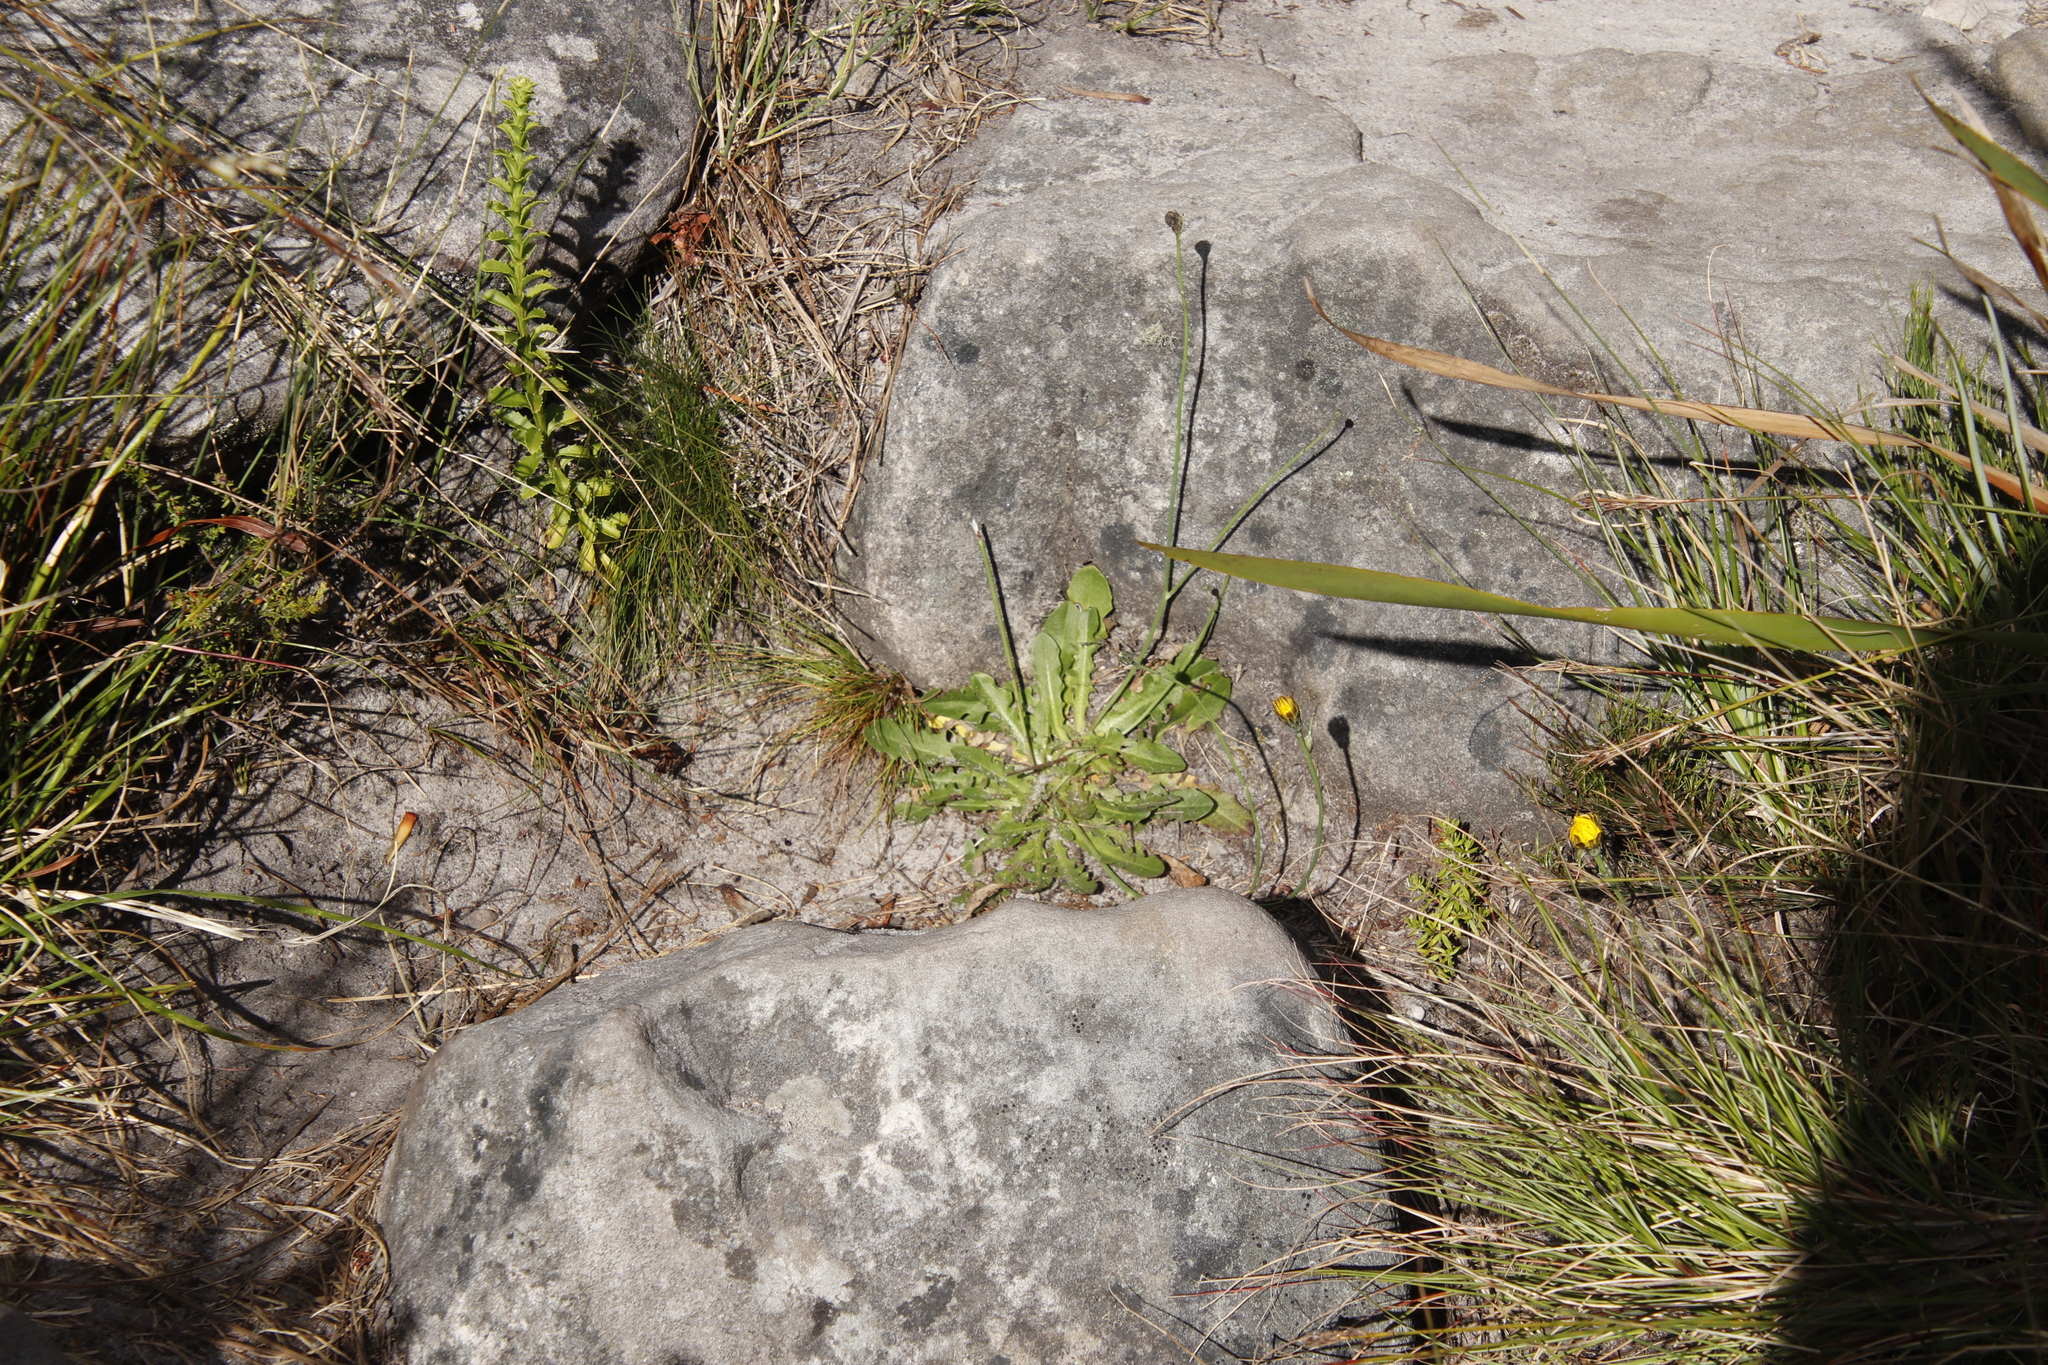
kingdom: Plantae
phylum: Tracheophyta
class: Magnoliopsida
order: Asterales
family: Asteraceae
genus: Hypochaeris
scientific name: Hypochaeris radicata
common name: Flatweed
